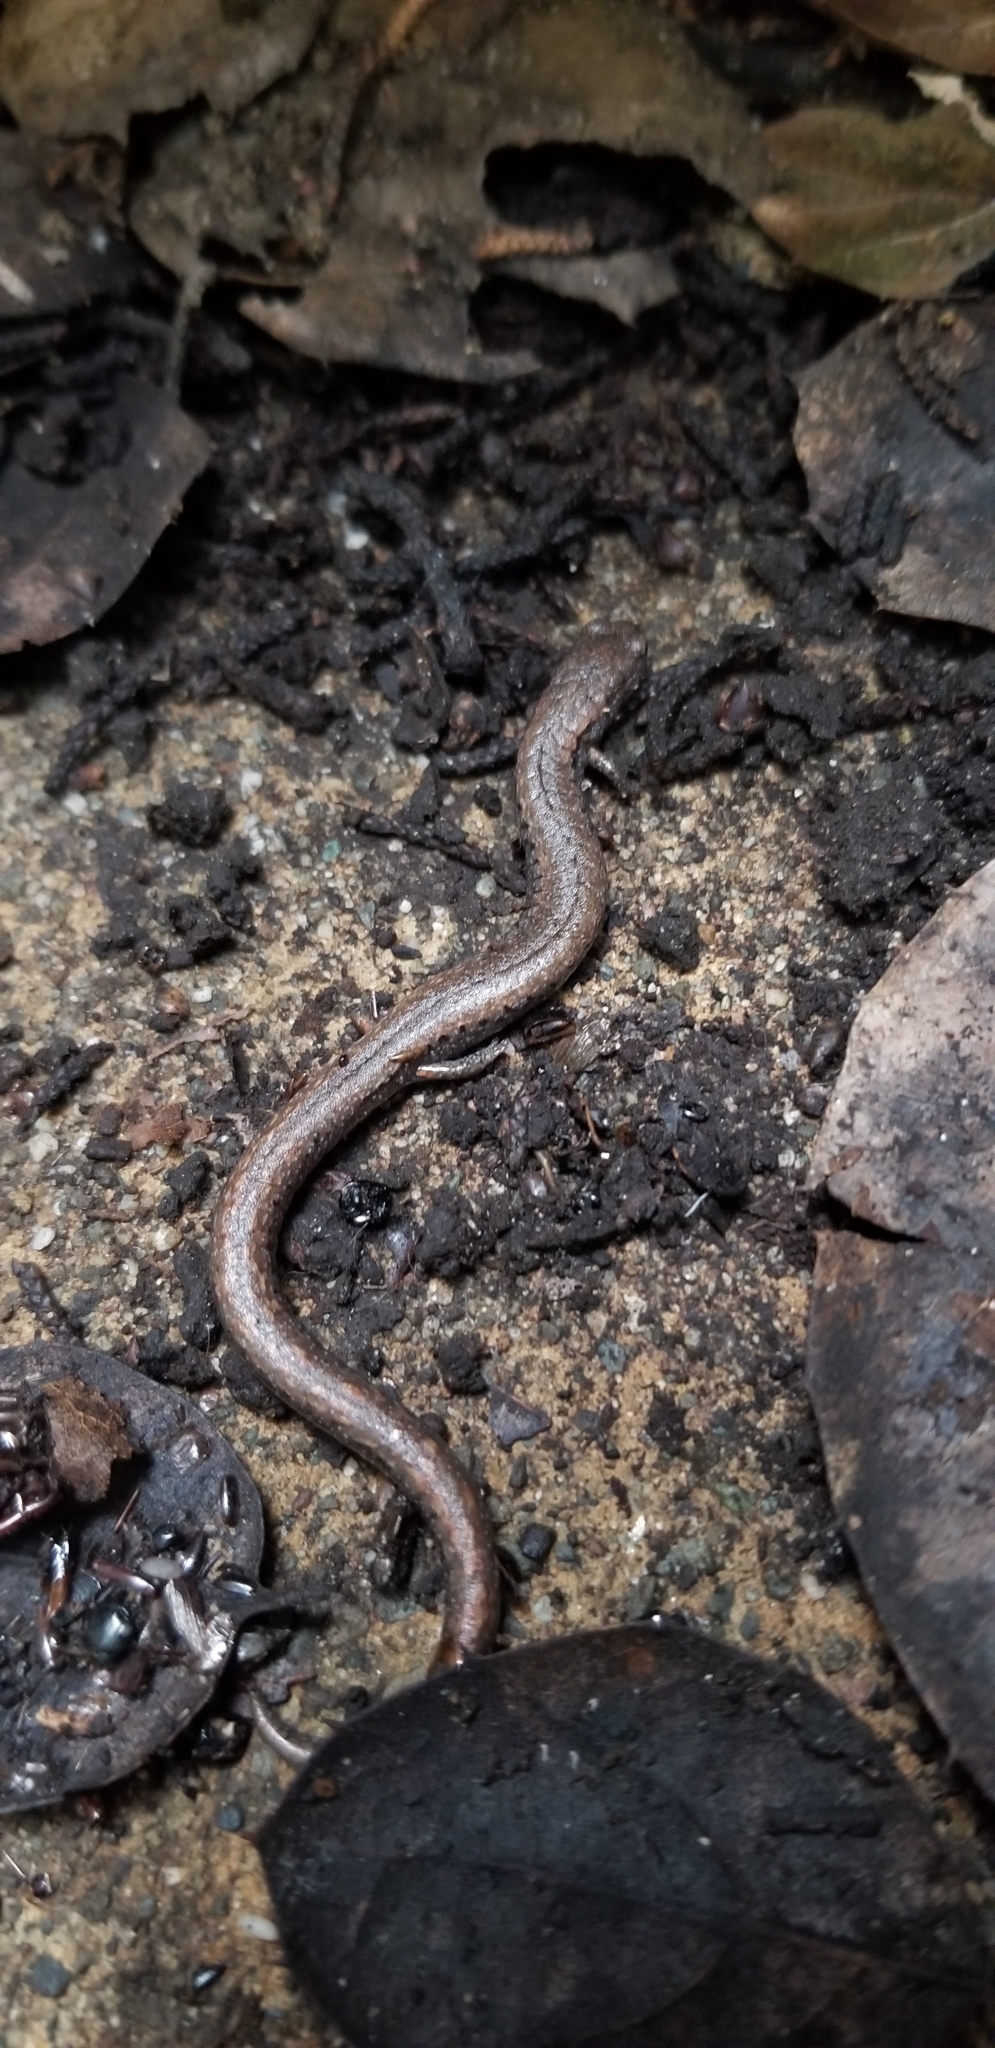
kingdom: Animalia
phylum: Chordata
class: Amphibia
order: Caudata
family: Plethodontidae
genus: Batrachoseps
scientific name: Batrachoseps attenuatus
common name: California slender salamander
